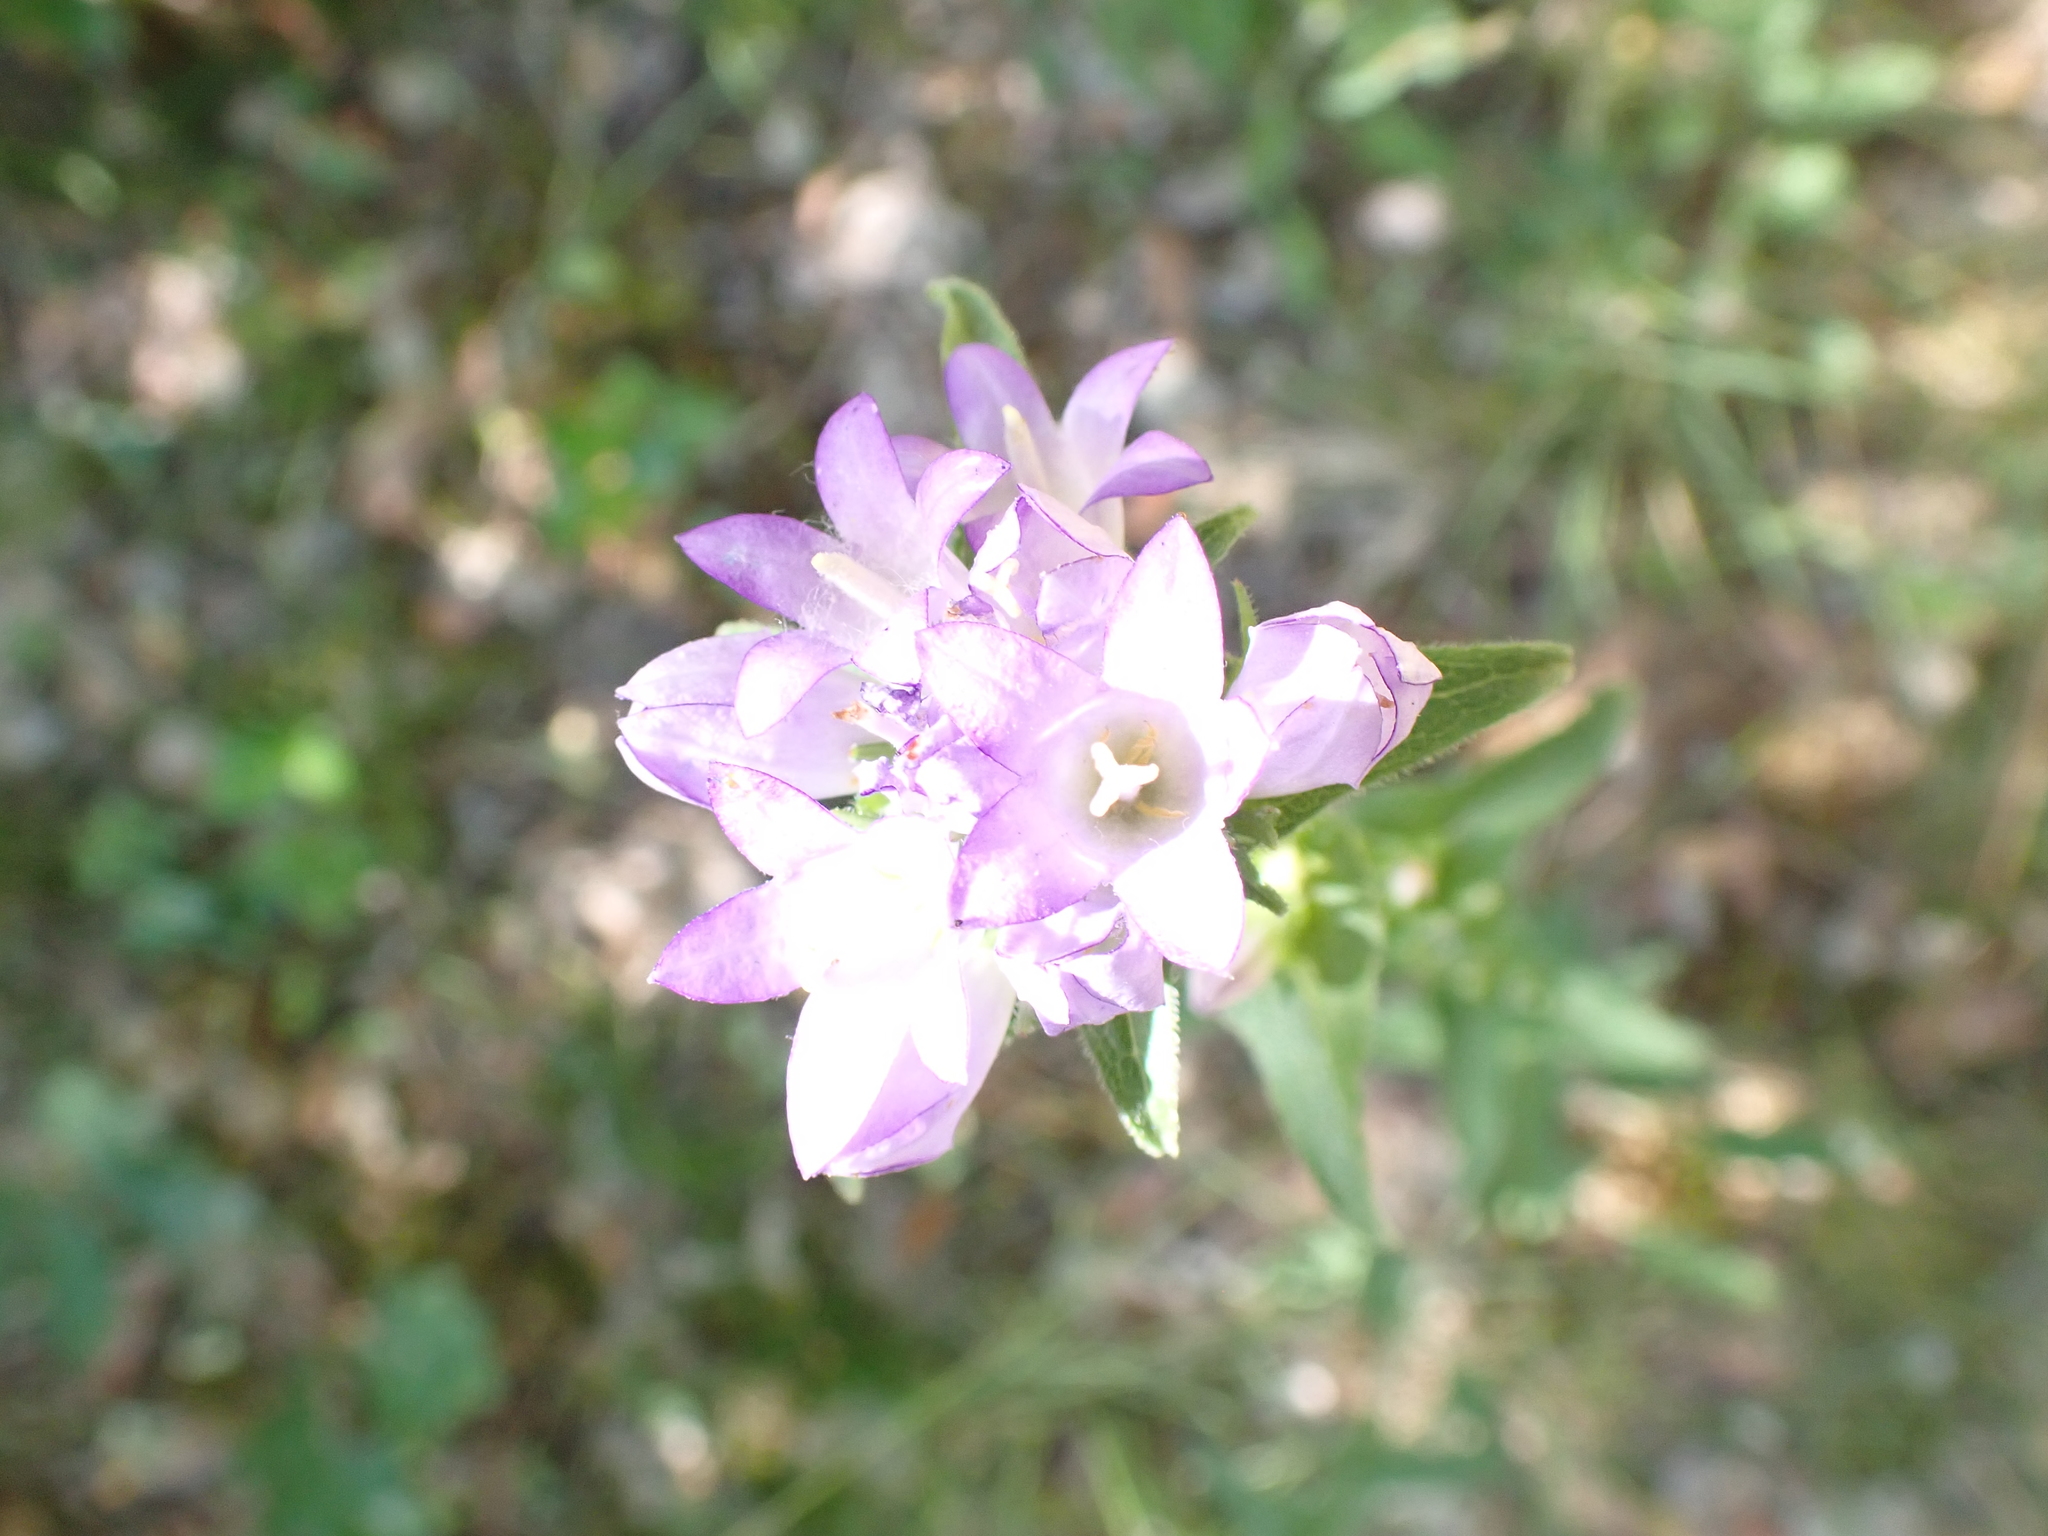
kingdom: Plantae
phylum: Tracheophyta
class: Magnoliopsida
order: Asterales
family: Campanulaceae
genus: Campanula
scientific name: Campanula glomerata
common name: Clustered bellflower
